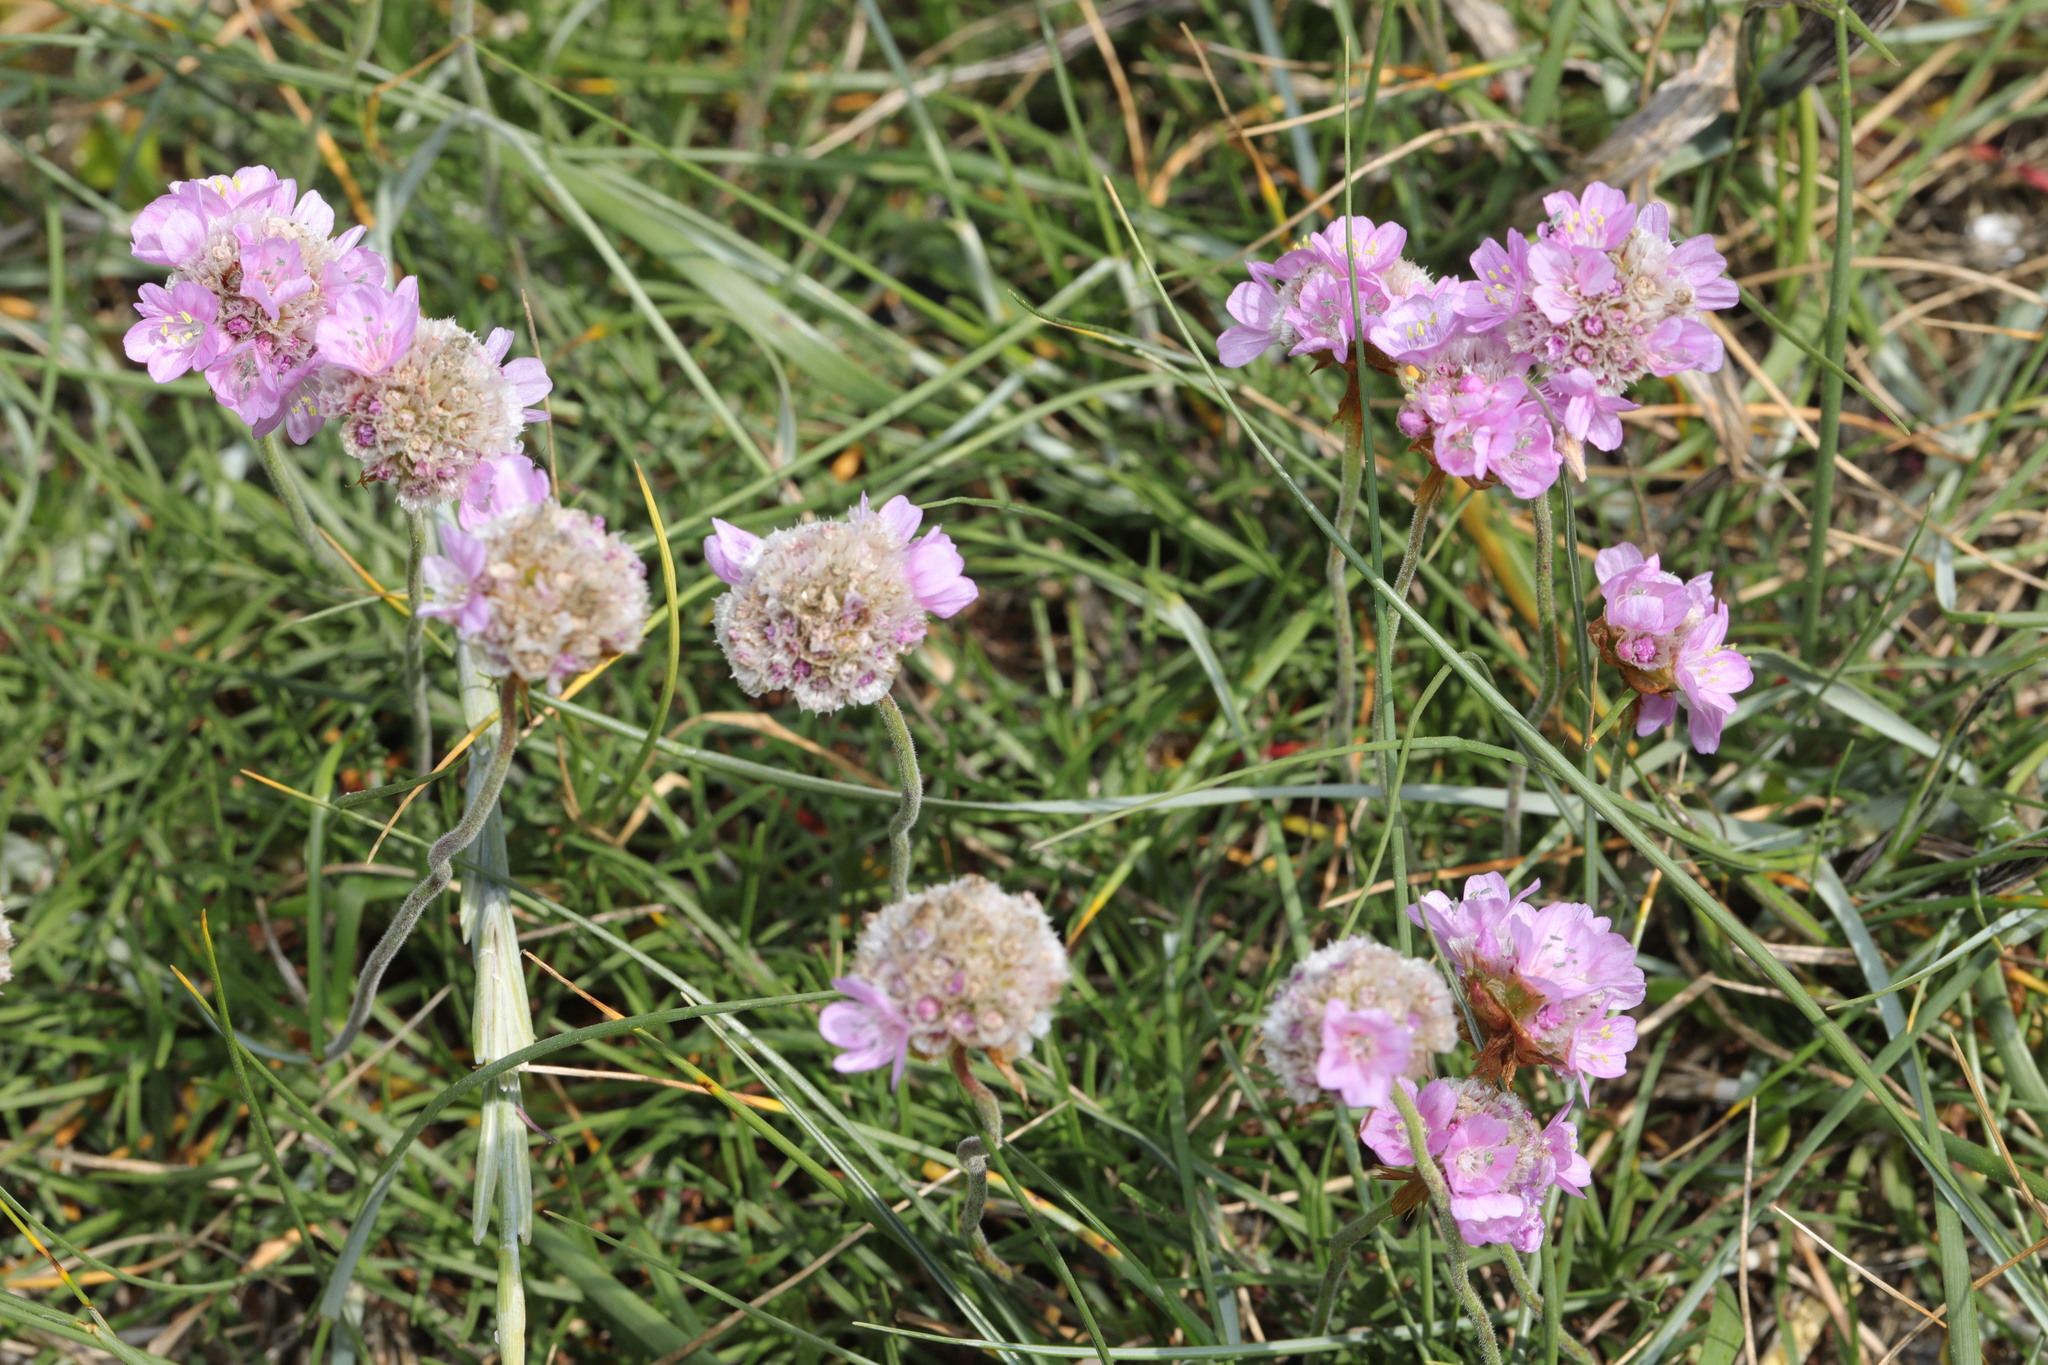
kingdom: Plantae
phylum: Tracheophyta
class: Magnoliopsida
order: Caryophyllales
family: Plumbaginaceae
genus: Armeria
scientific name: Armeria maritima
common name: Thrift
